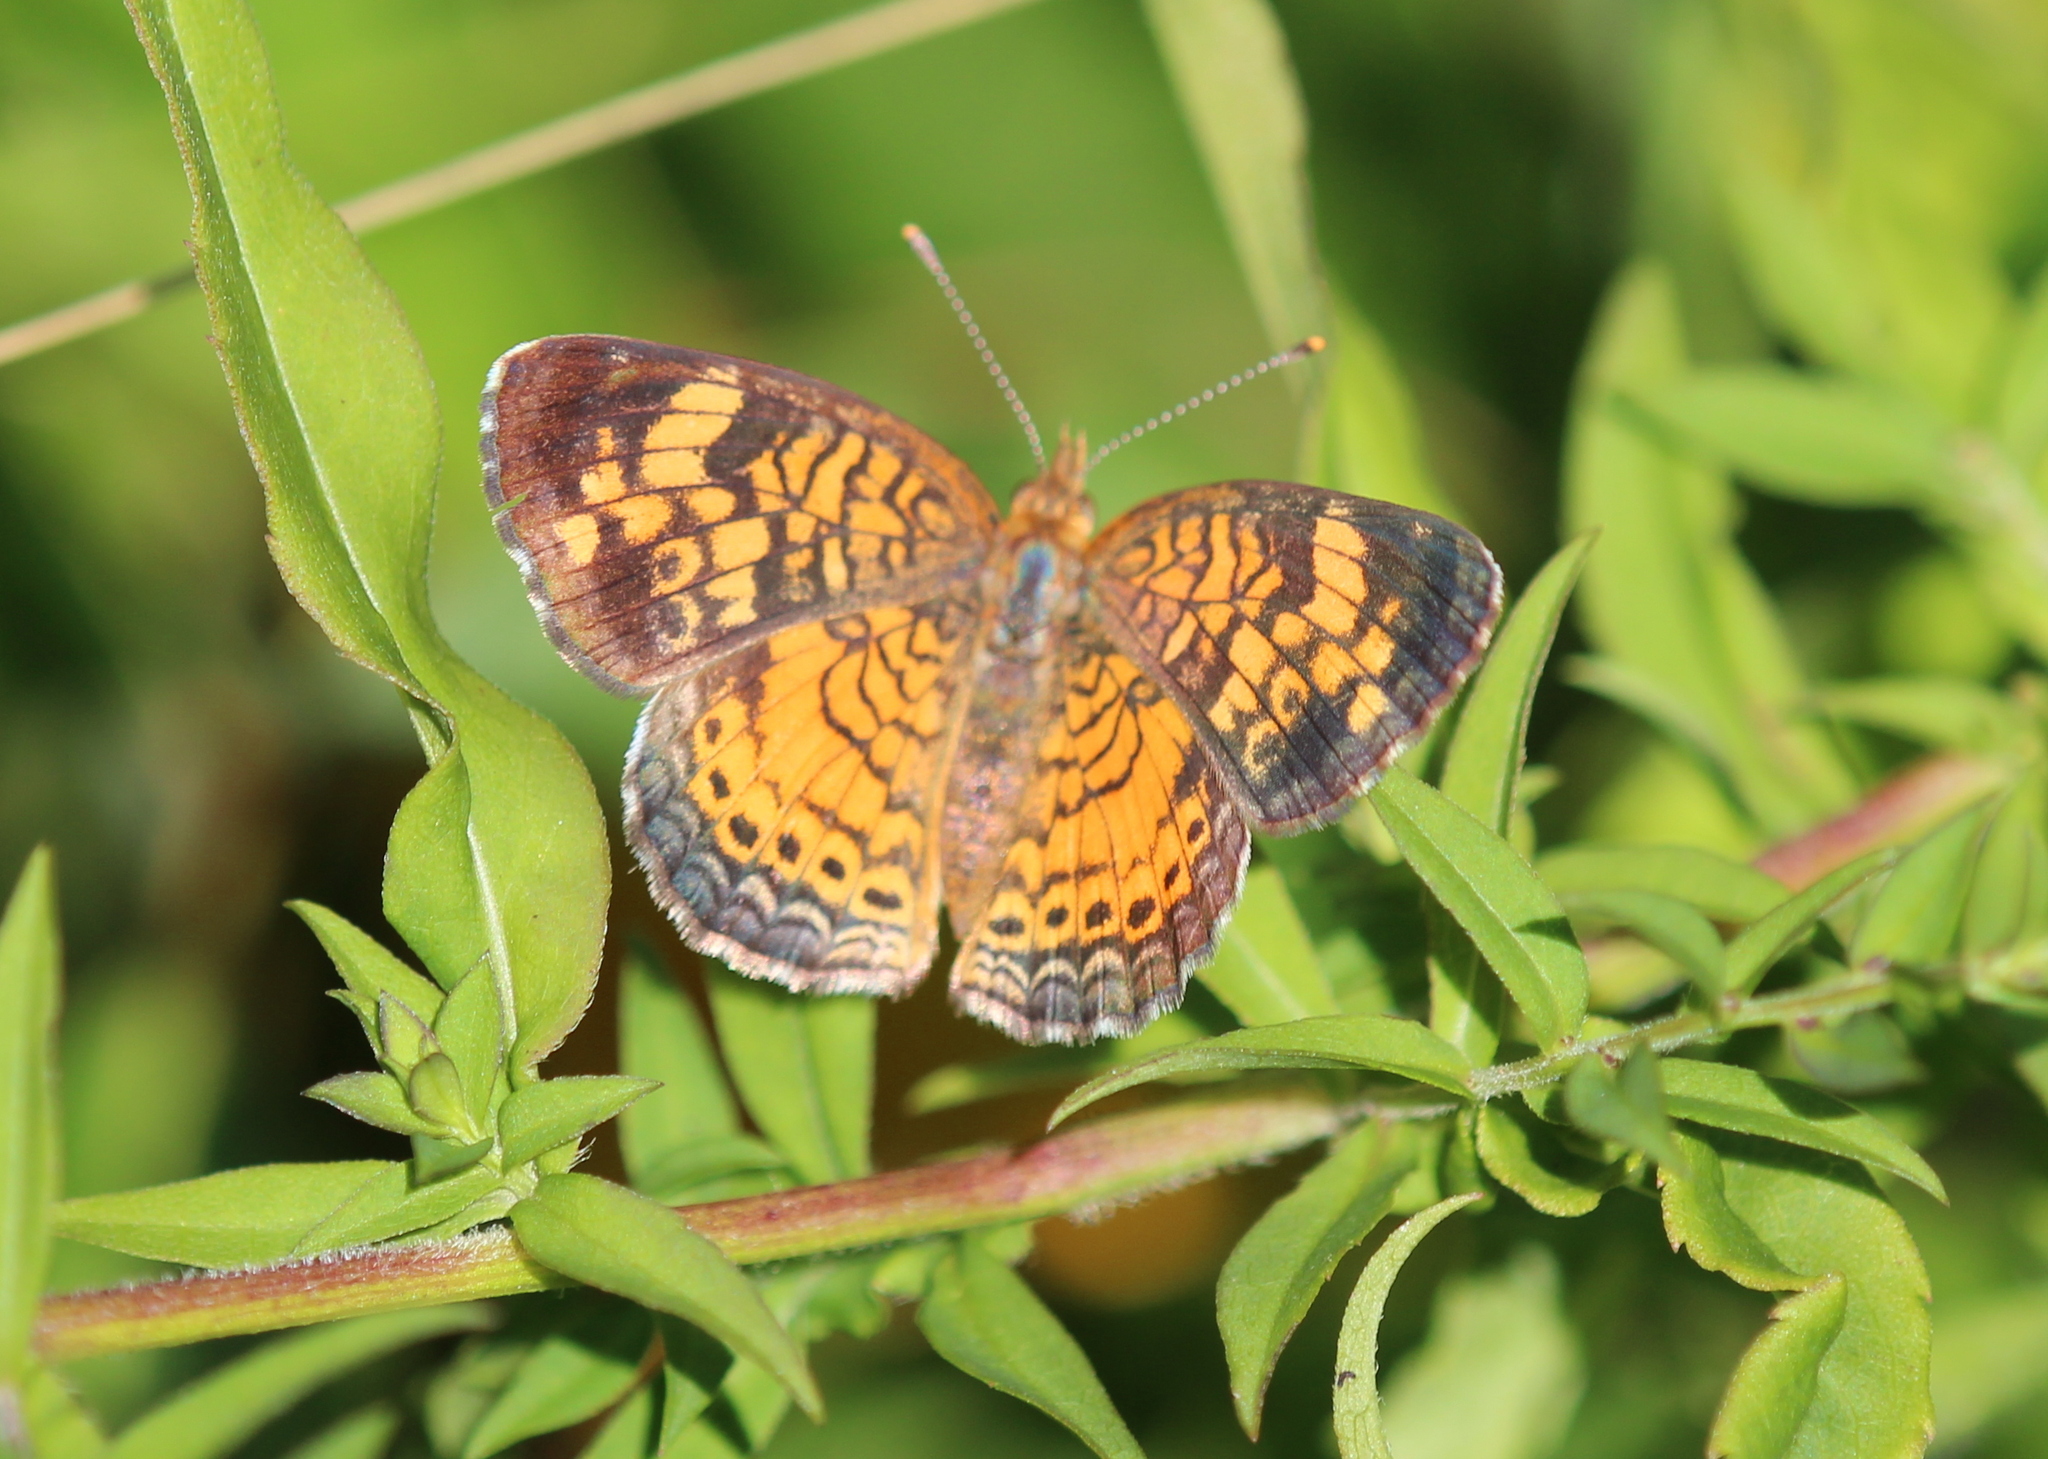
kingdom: Animalia
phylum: Arthropoda
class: Insecta
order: Lepidoptera
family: Nymphalidae
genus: Phyciodes
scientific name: Phyciodes tharos
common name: Pearl crescent
